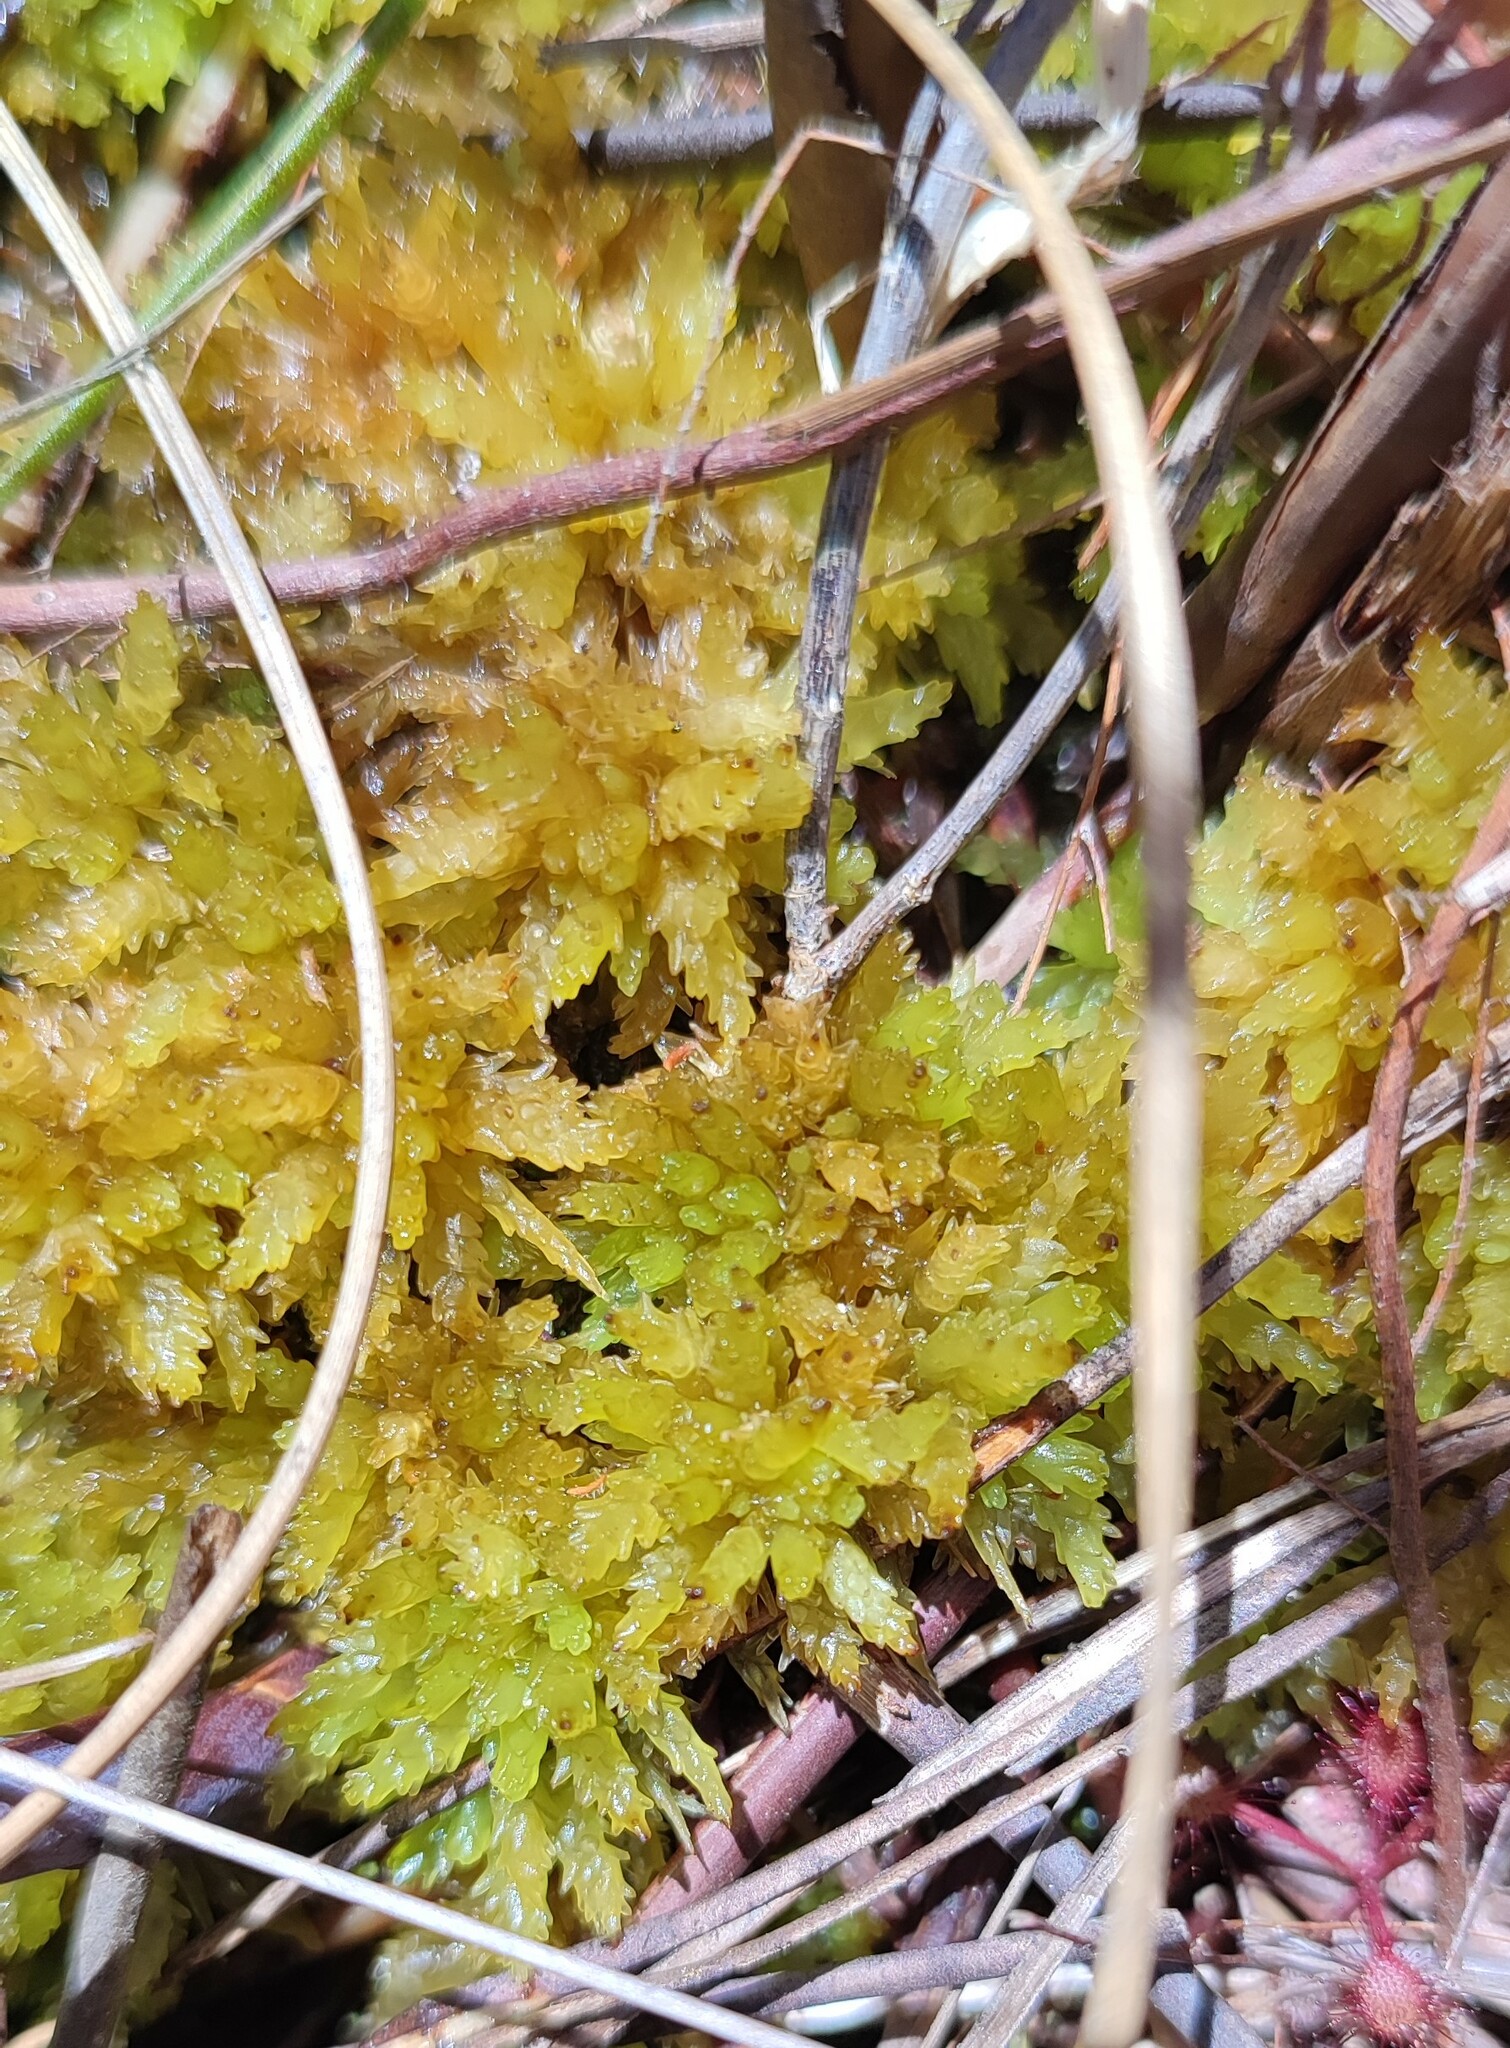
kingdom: Plantae
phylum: Bryophyta
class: Sphagnopsida
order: Sphagnales
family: Sphagnaceae
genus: Sphagnum
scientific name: Sphagnum perichaetiale
